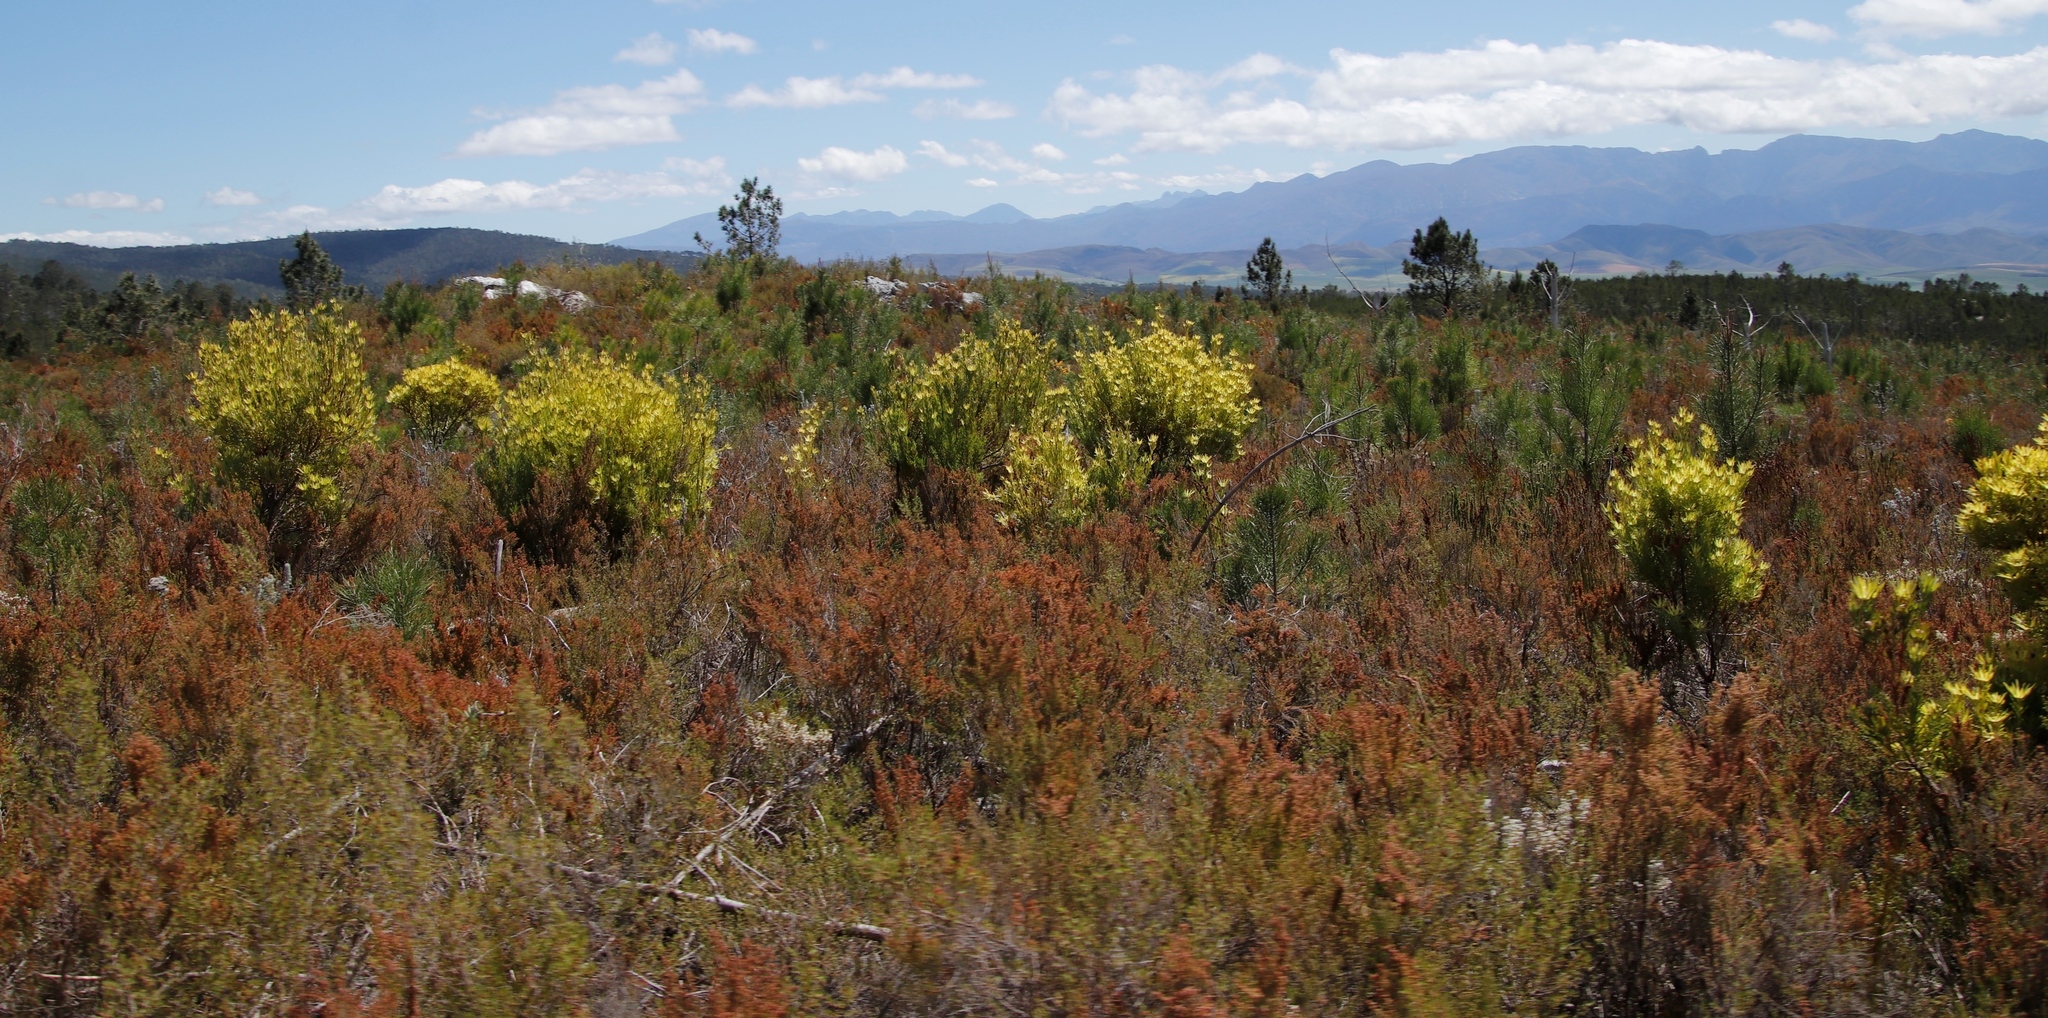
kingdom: Plantae
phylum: Tracheophyta
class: Magnoliopsida
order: Proteales
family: Proteaceae
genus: Leucadendron
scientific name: Leucadendron xanthoconus
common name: Sickle-leaf conebush
